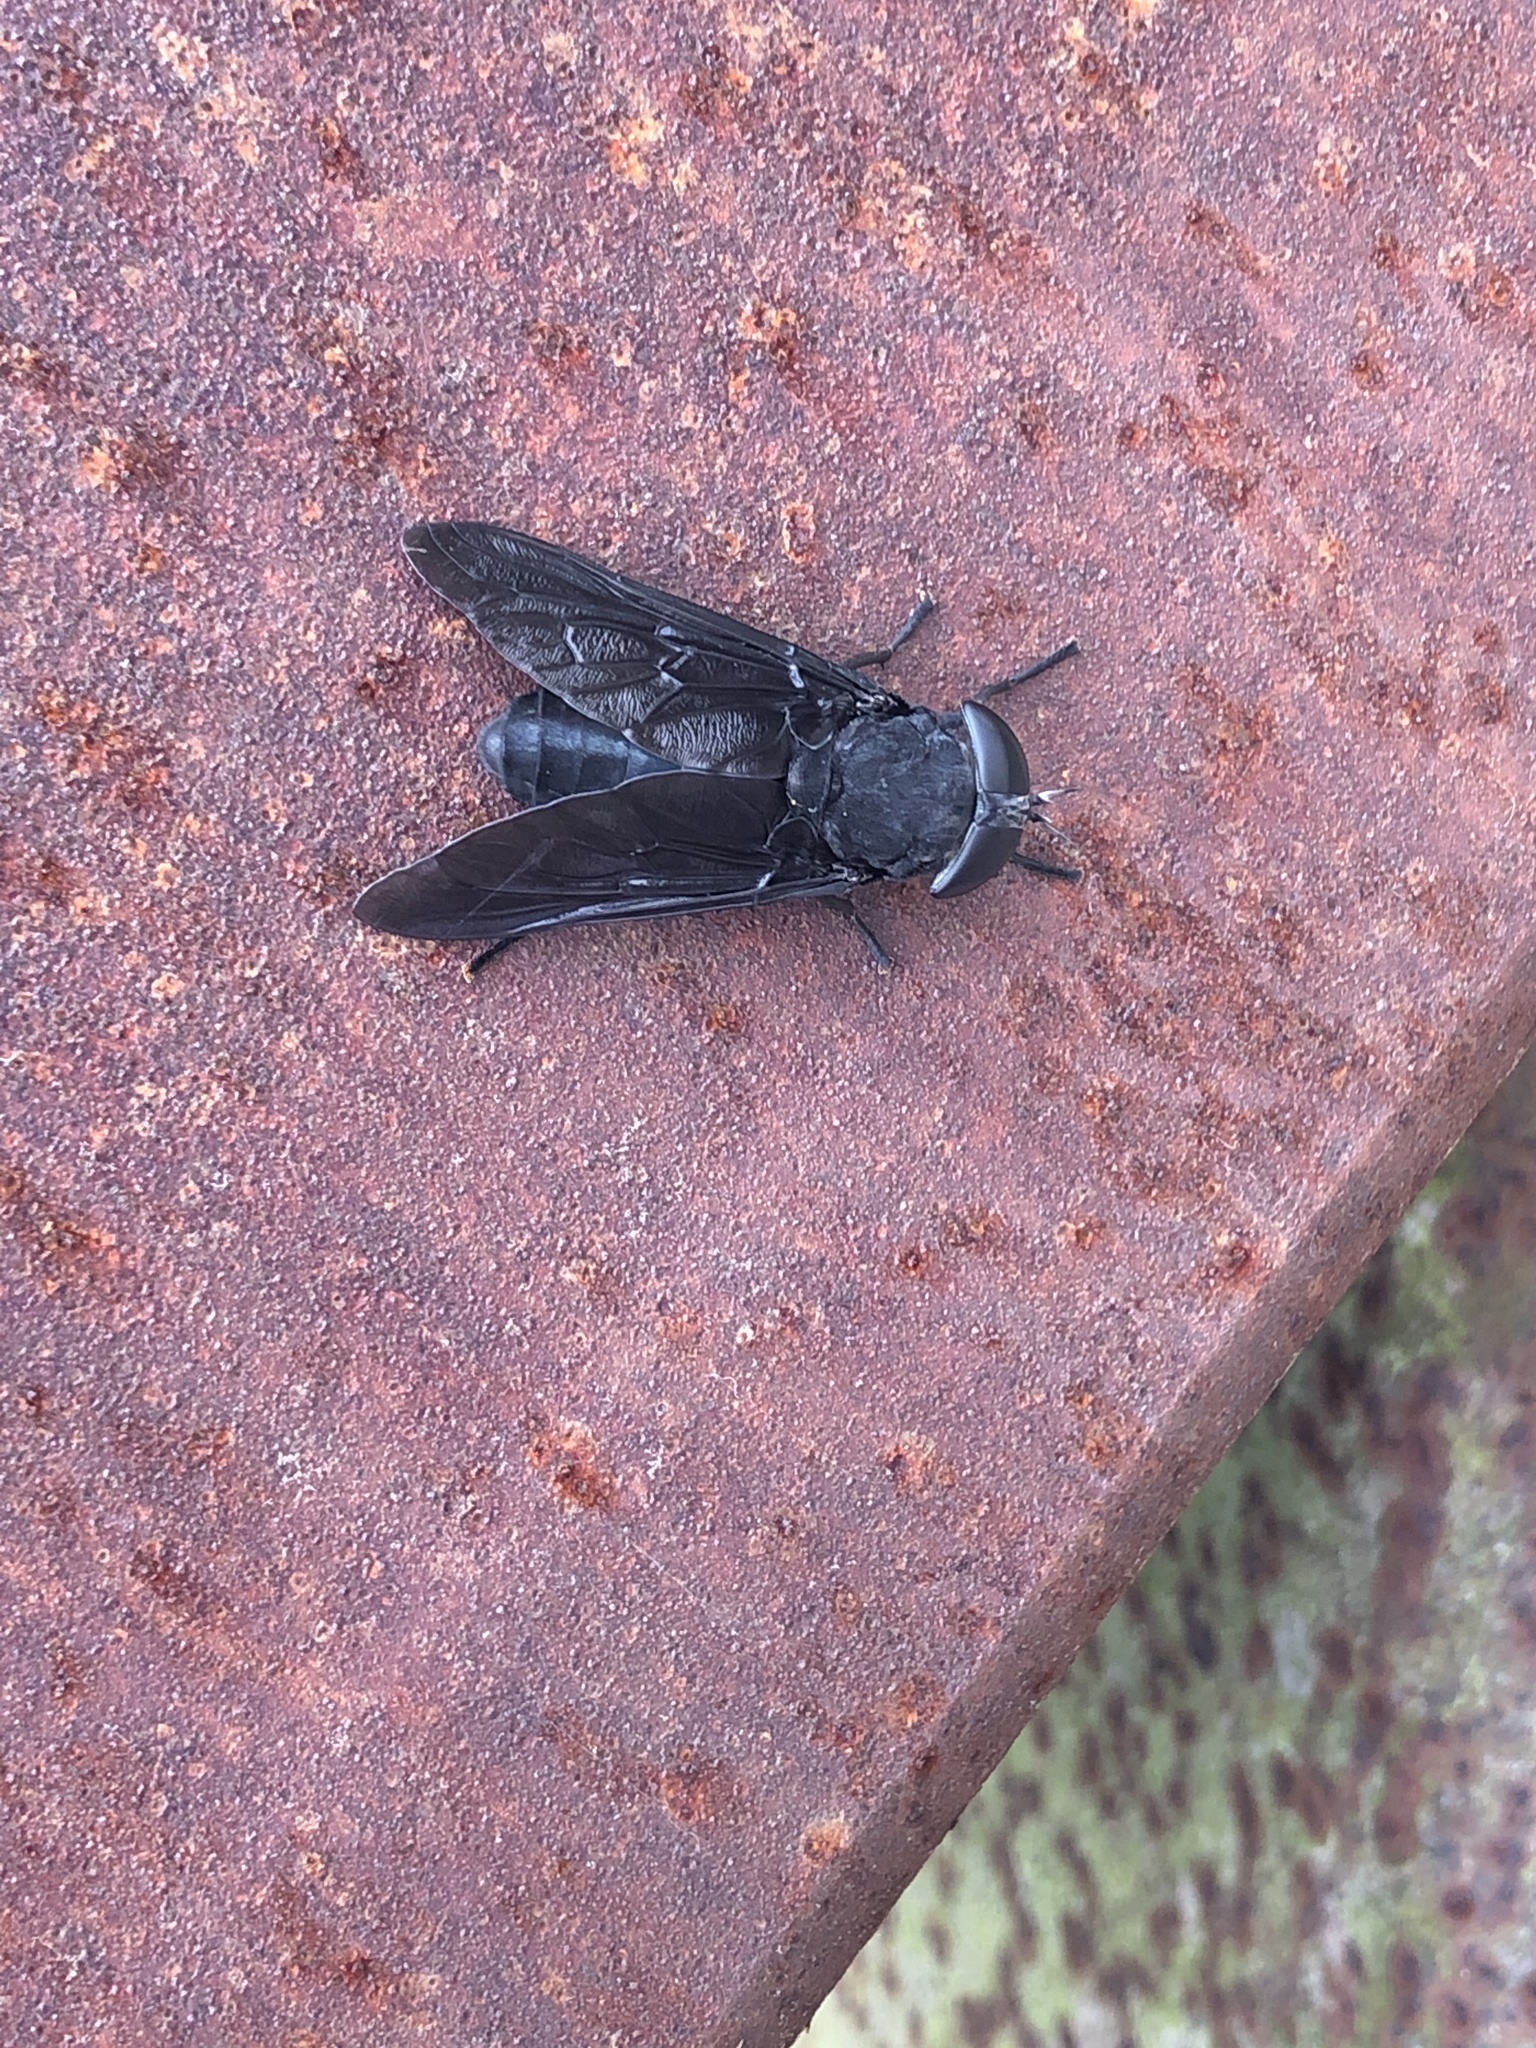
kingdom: Animalia
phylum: Arthropoda
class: Insecta
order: Diptera
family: Tabanidae
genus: Tabanus
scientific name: Tabanus atratus
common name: Black horse fly
